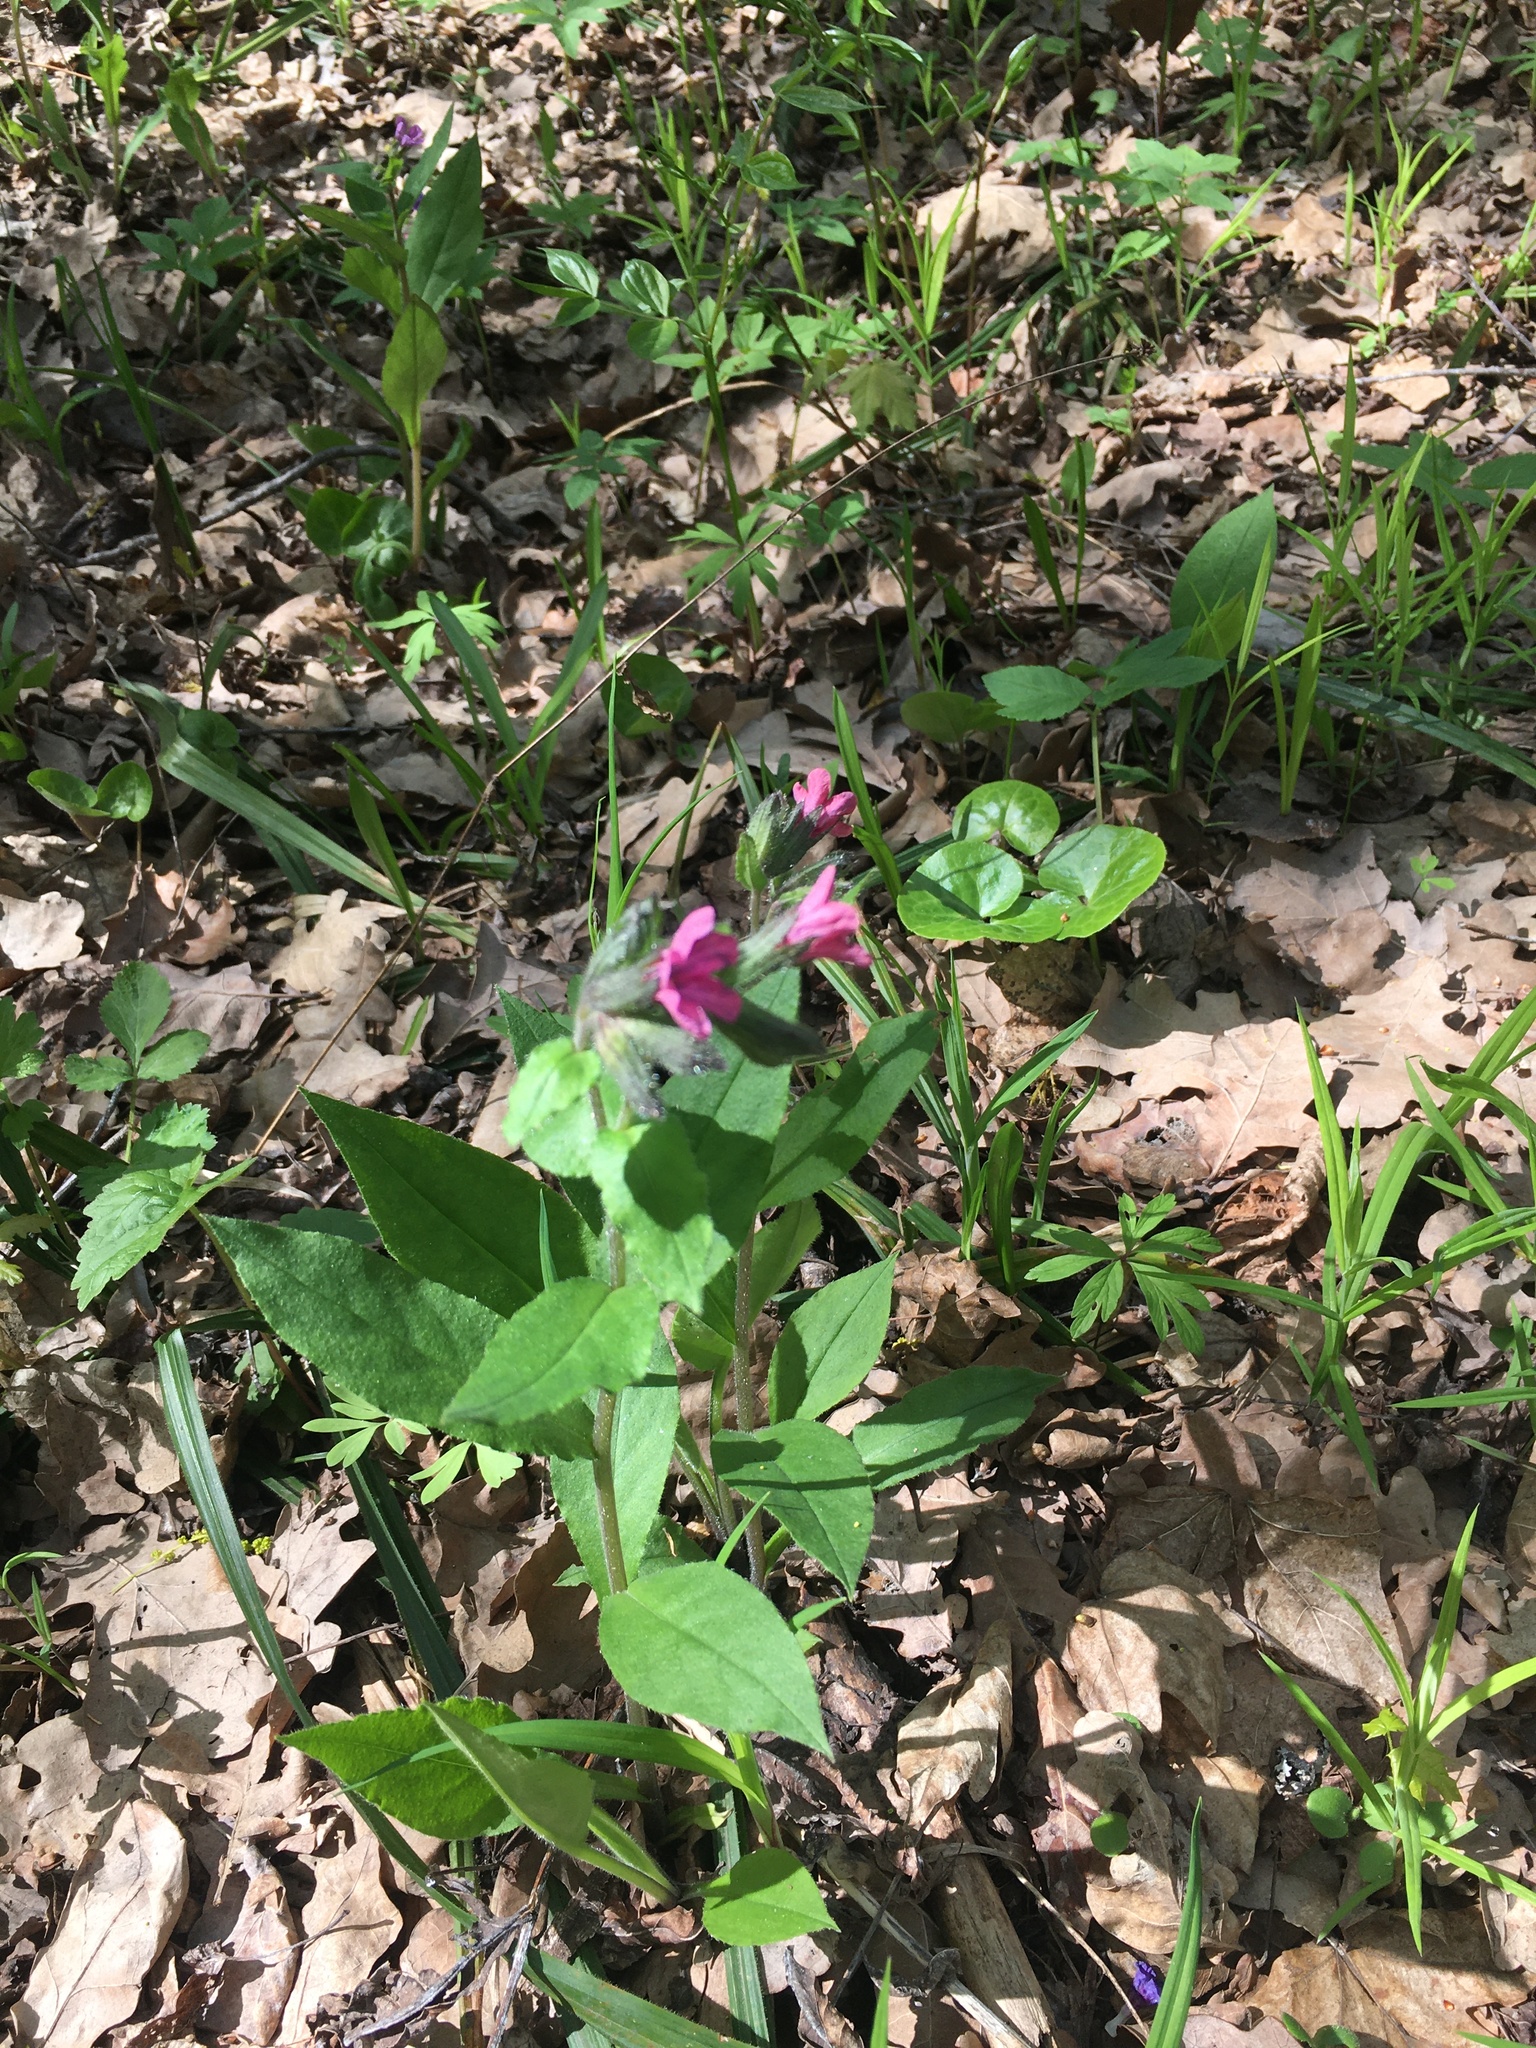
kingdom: Plantae
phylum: Tracheophyta
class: Magnoliopsida
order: Boraginales
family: Boraginaceae
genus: Pulmonaria
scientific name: Pulmonaria obscura
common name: Suffolk lungwort
